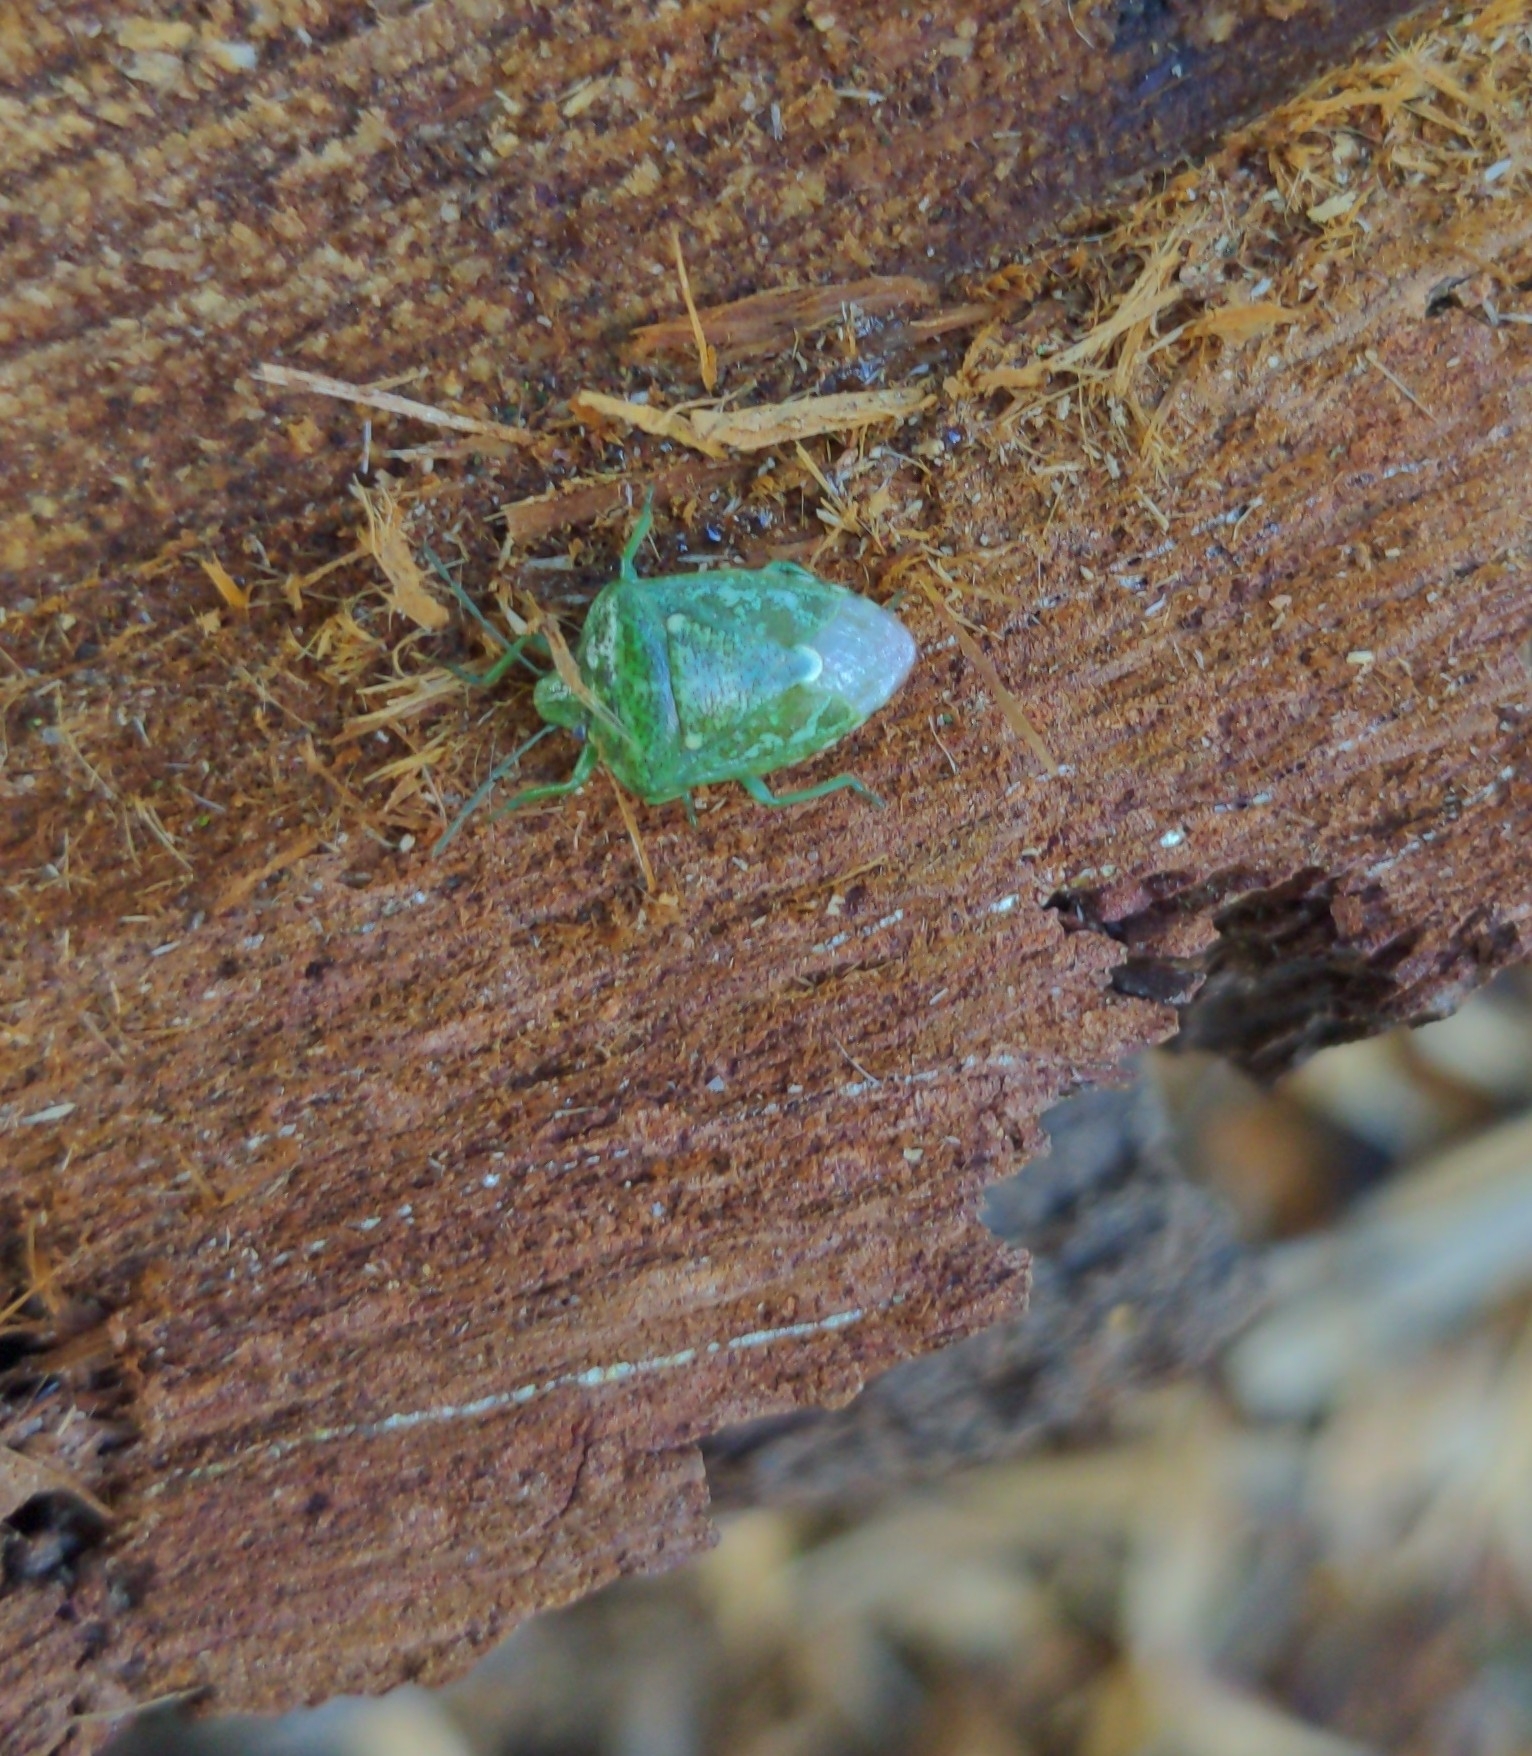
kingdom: Animalia
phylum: Arthropoda
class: Insecta
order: Hemiptera
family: Pentatomidae
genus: Banasa
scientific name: Banasa euchlora
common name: Cedar berry bug
